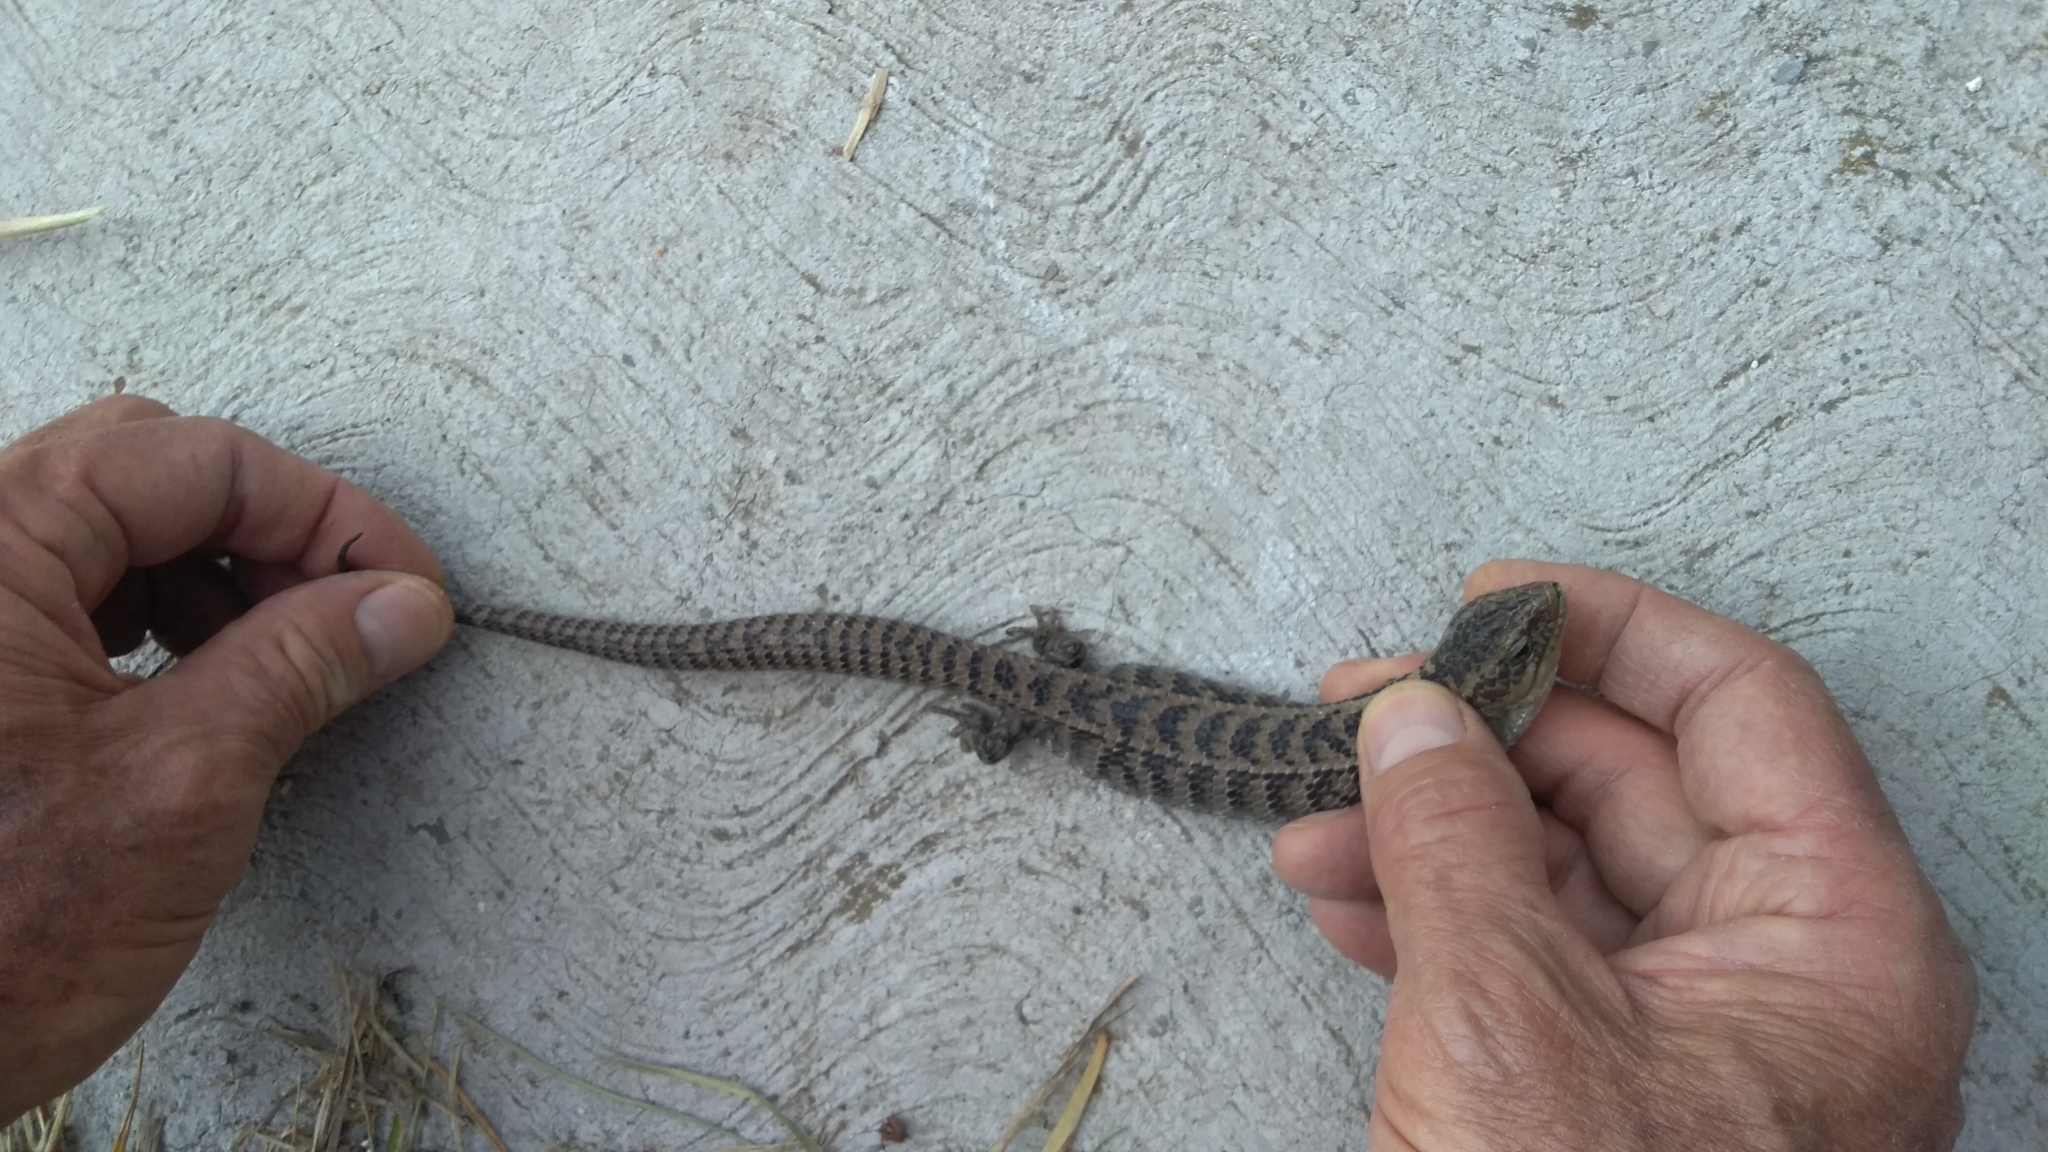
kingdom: Animalia
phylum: Chordata
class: Squamata
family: Anguidae
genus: Barisia
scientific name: Barisia imbricata
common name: Imbricate alligator lizard
